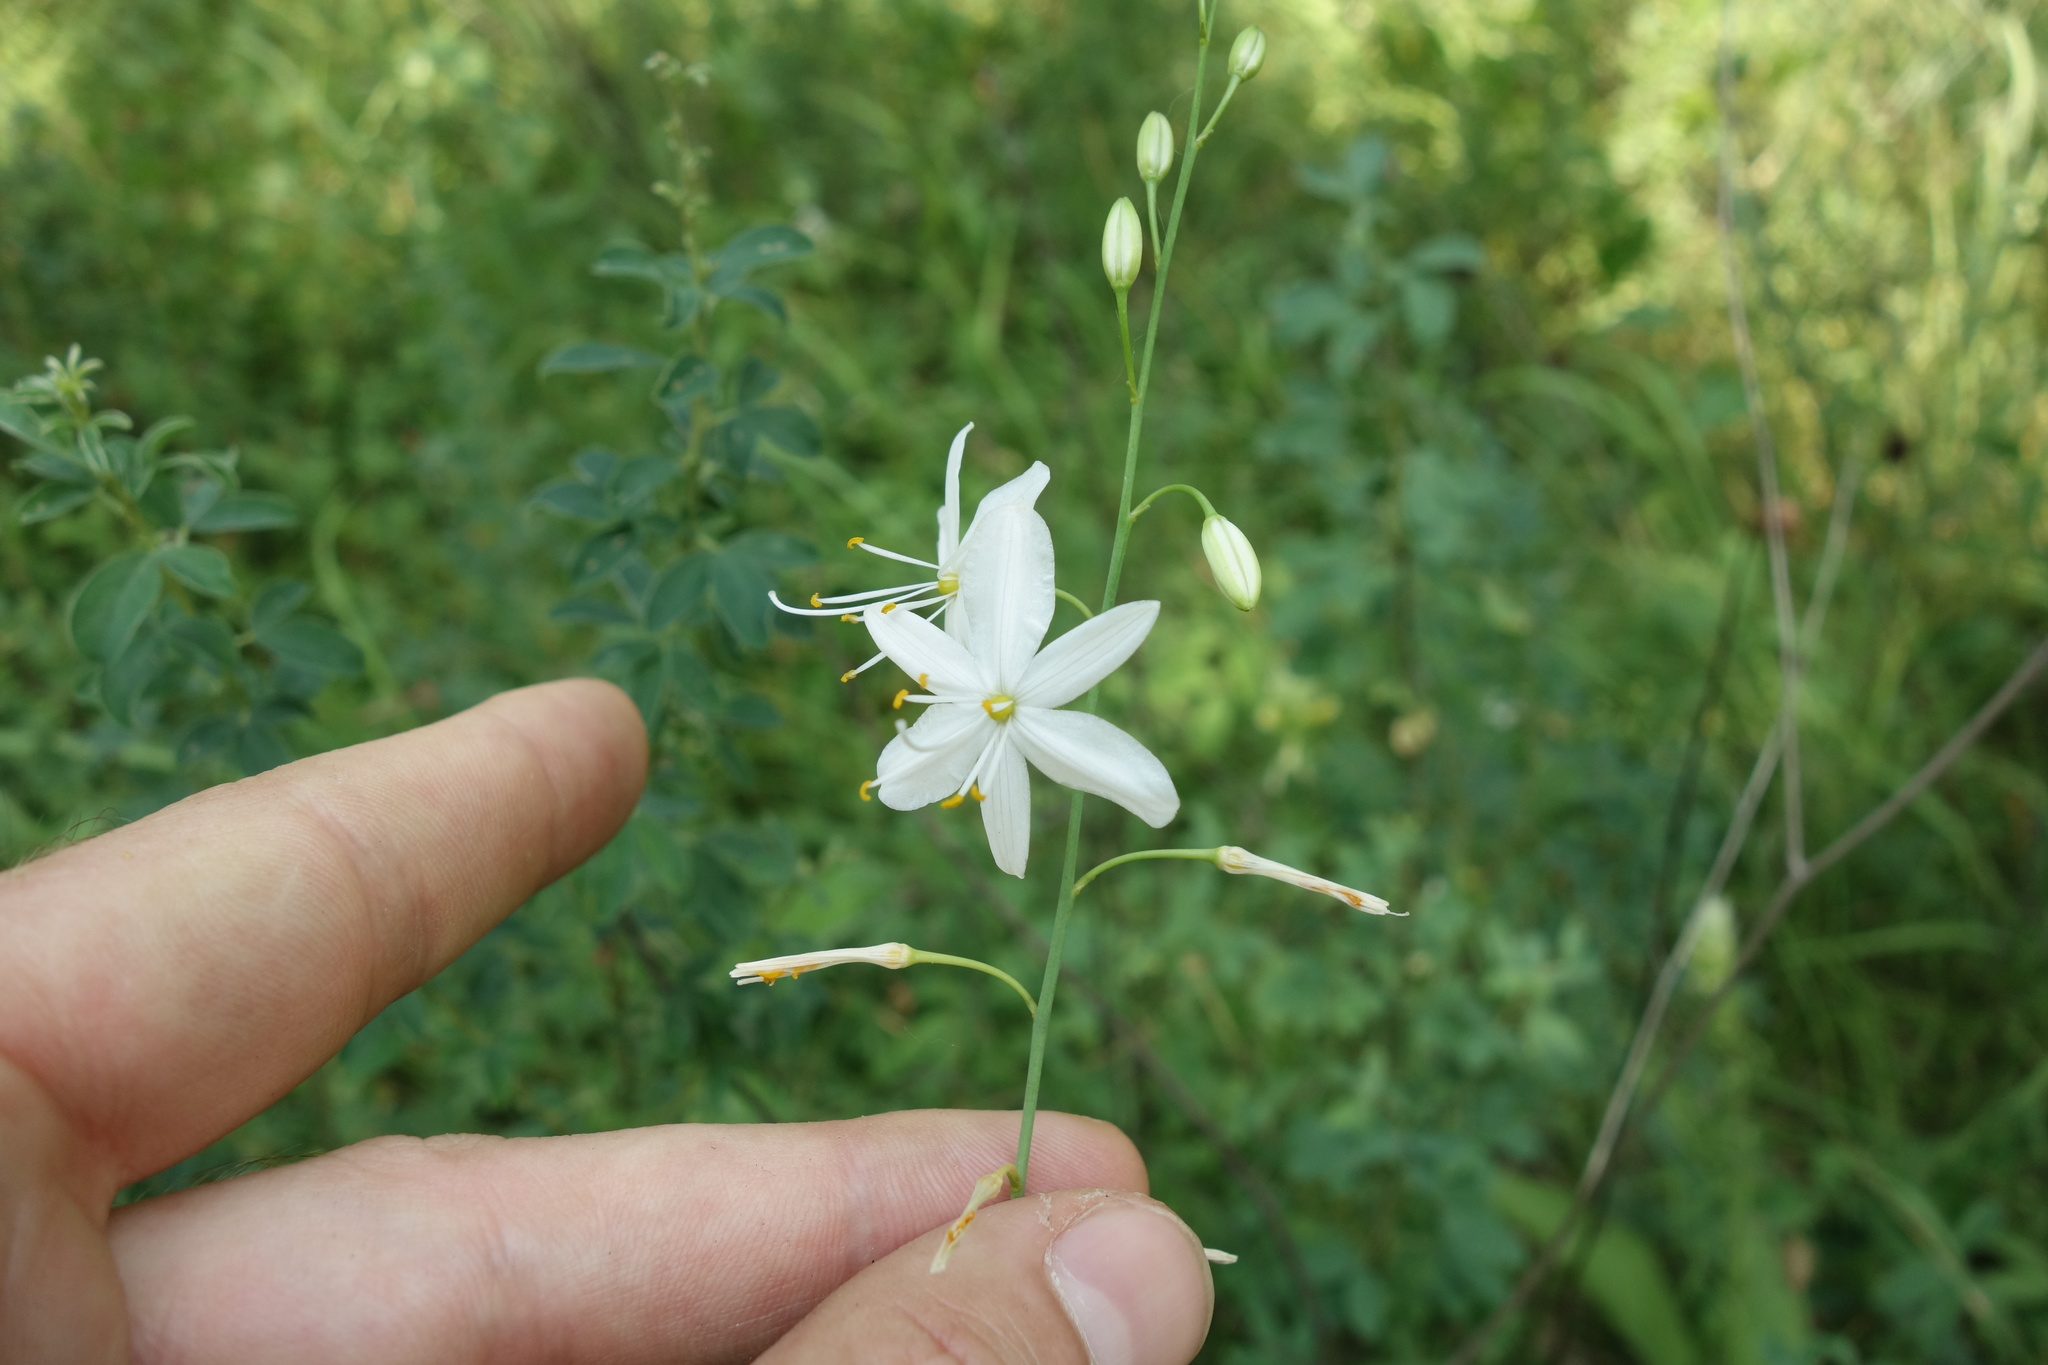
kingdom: Plantae
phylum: Tracheophyta
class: Liliopsida
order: Asparagales
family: Asparagaceae
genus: Anthericum
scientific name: Anthericum ramosum
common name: Branched st. bernard's-lily
